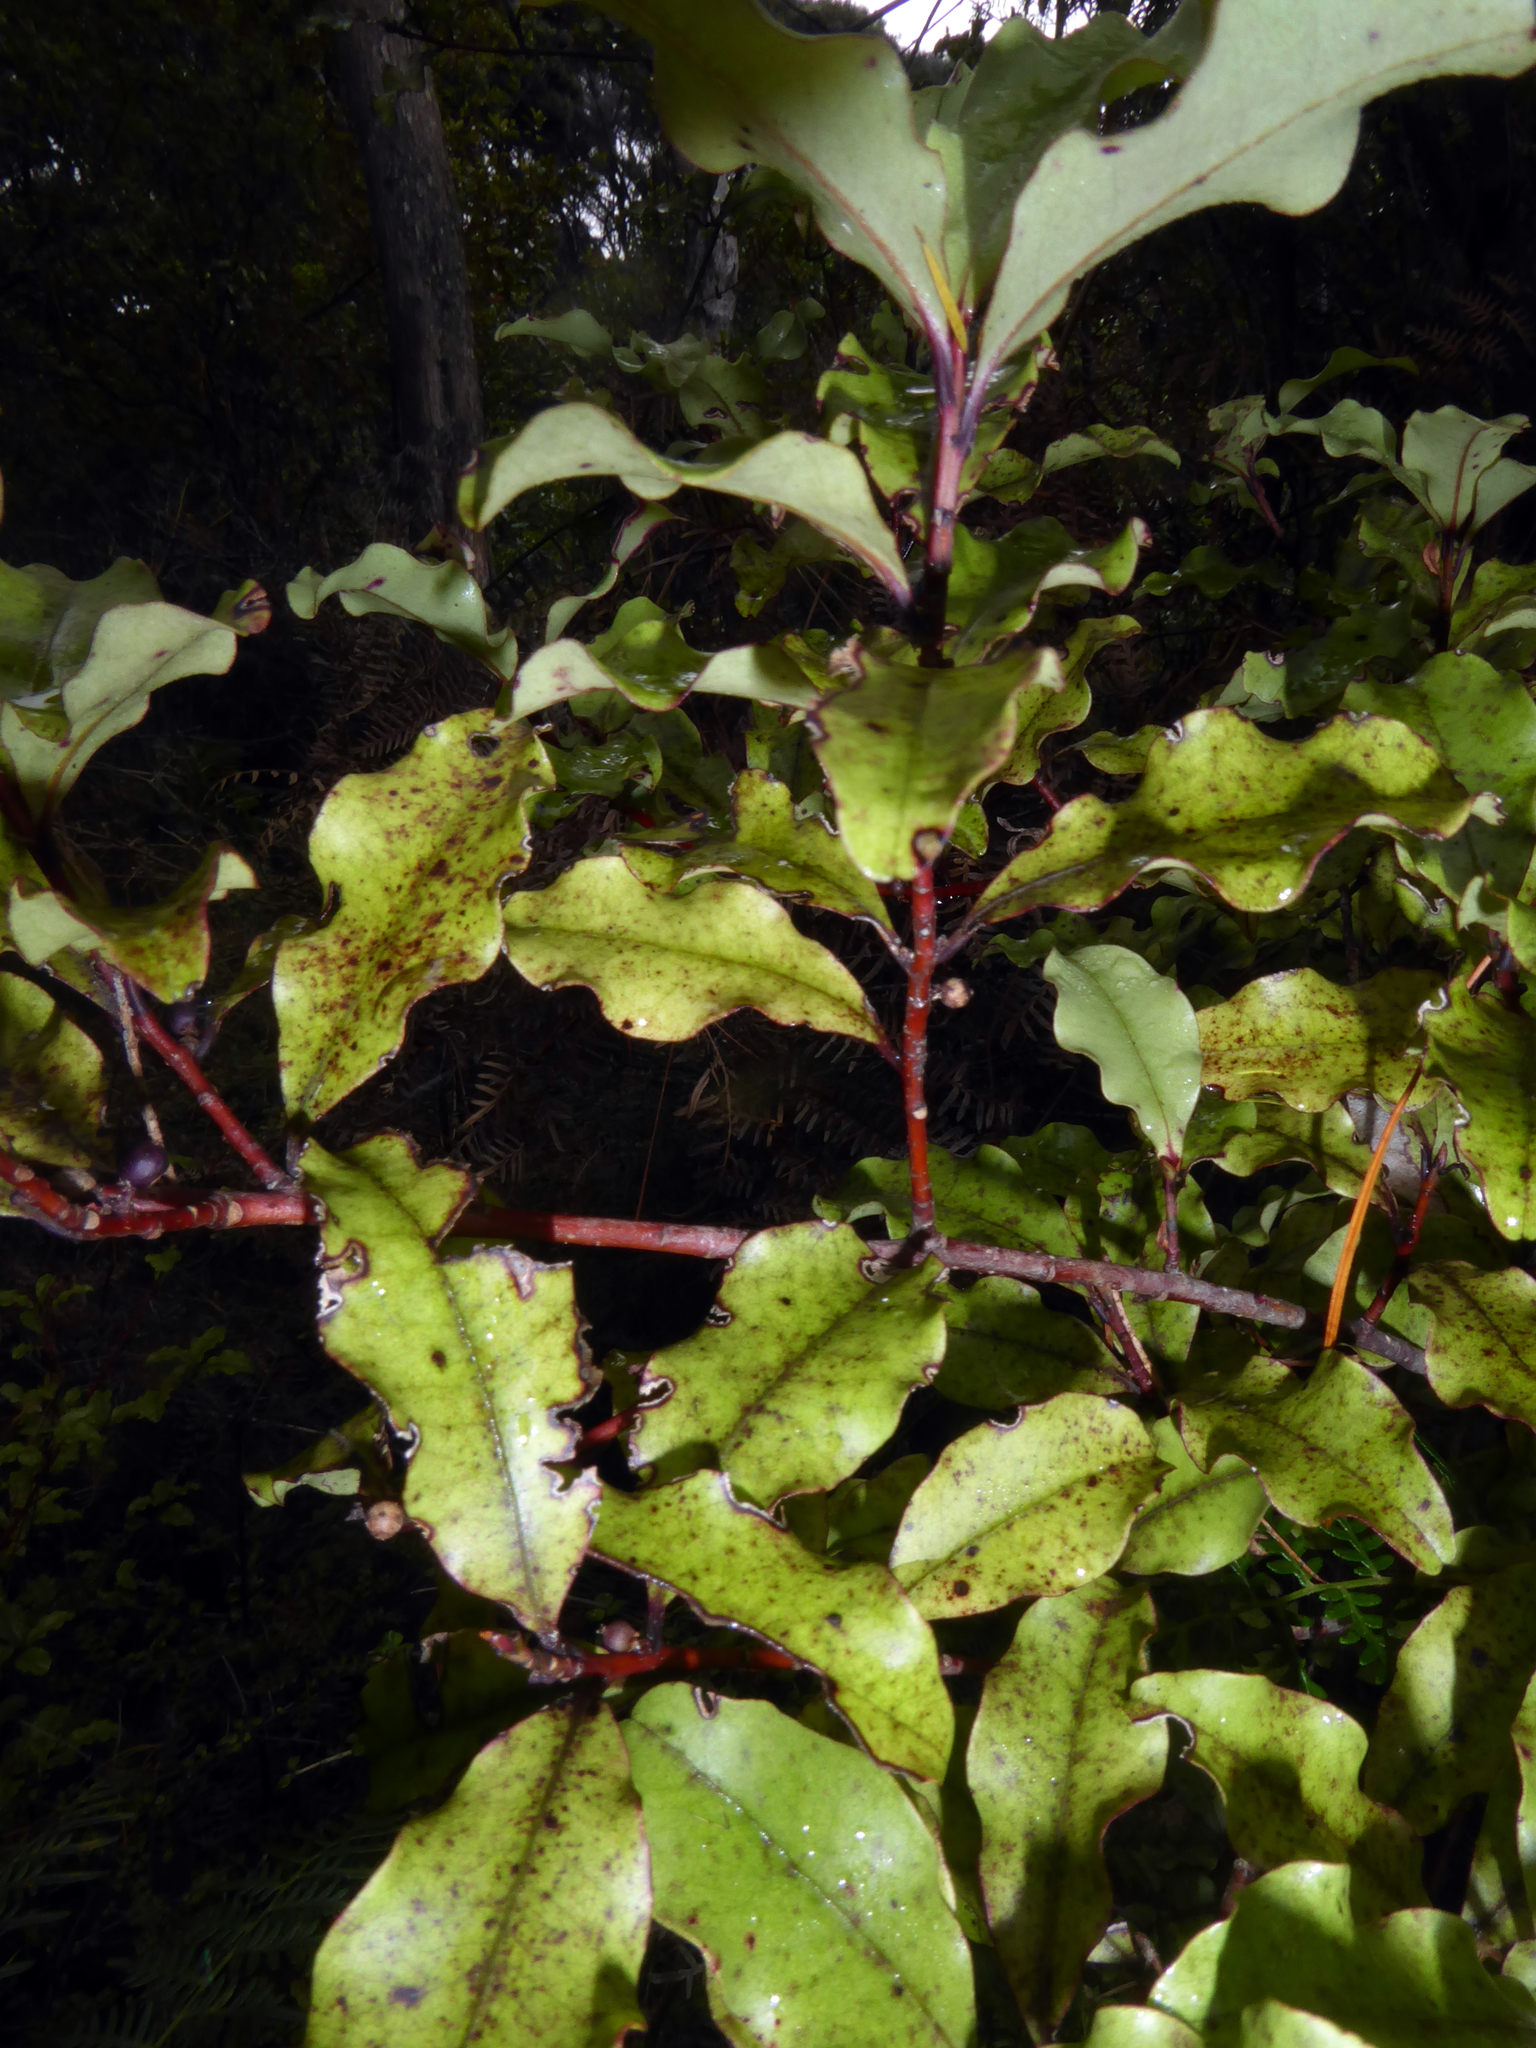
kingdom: Plantae
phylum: Tracheophyta
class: Magnoliopsida
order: Ericales
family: Primulaceae
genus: Myrsine
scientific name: Myrsine australis
